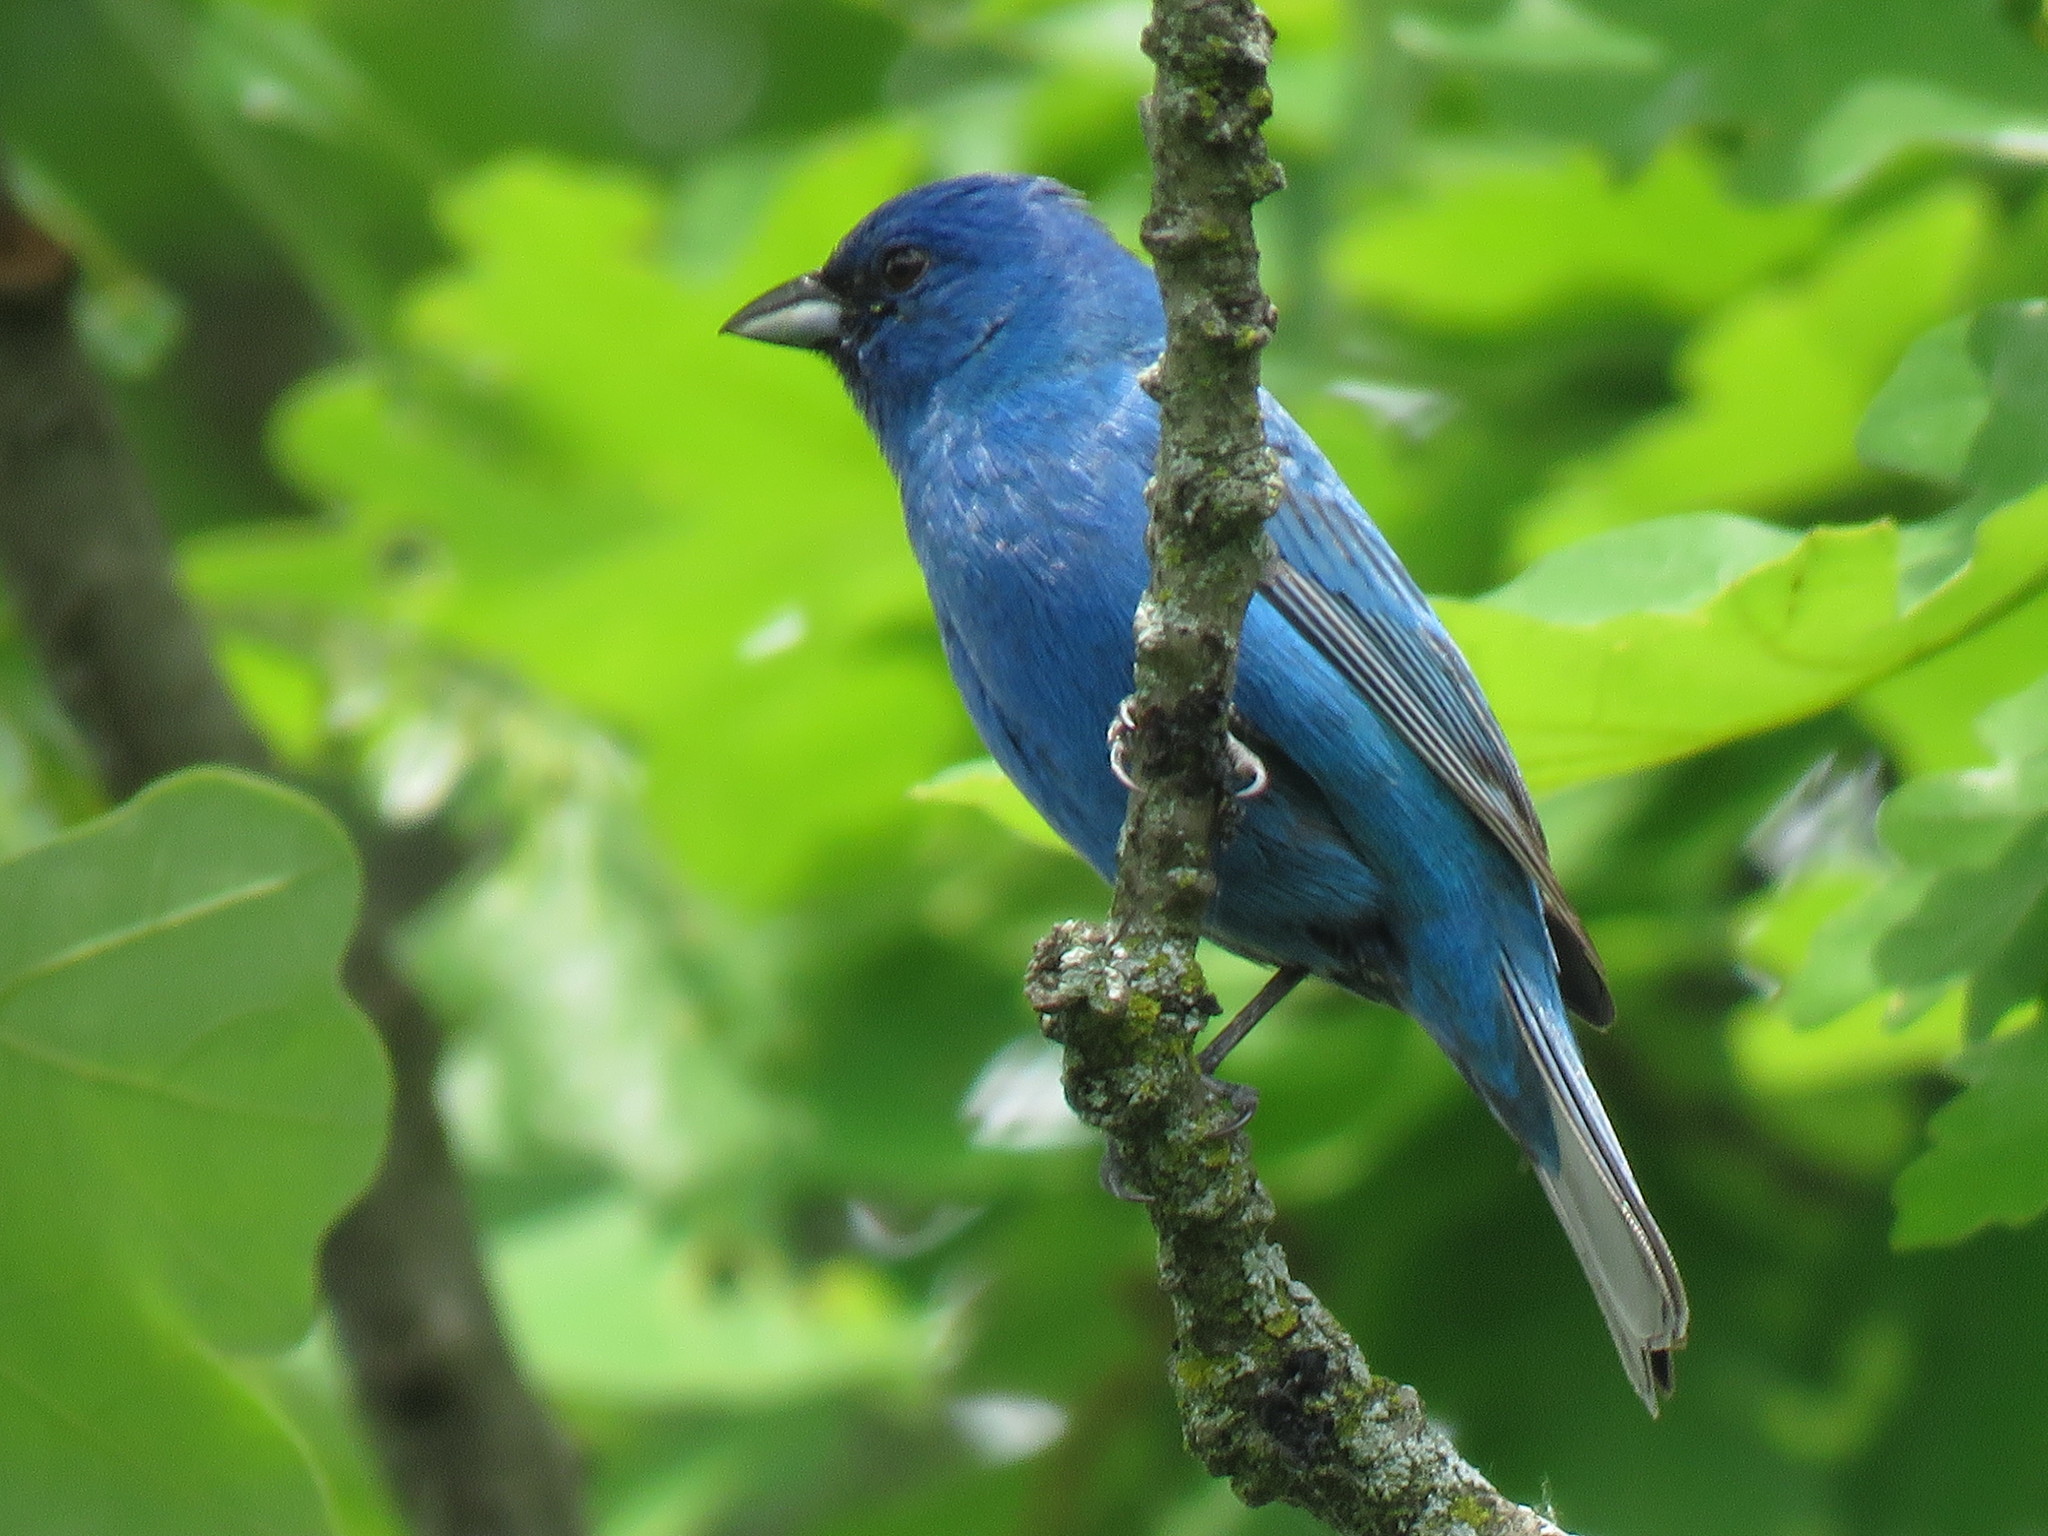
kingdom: Animalia
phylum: Chordata
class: Aves
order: Passeriformes
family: Cardinalidae
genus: Passerina
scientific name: Passerina cyanea
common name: Indigo bunting
